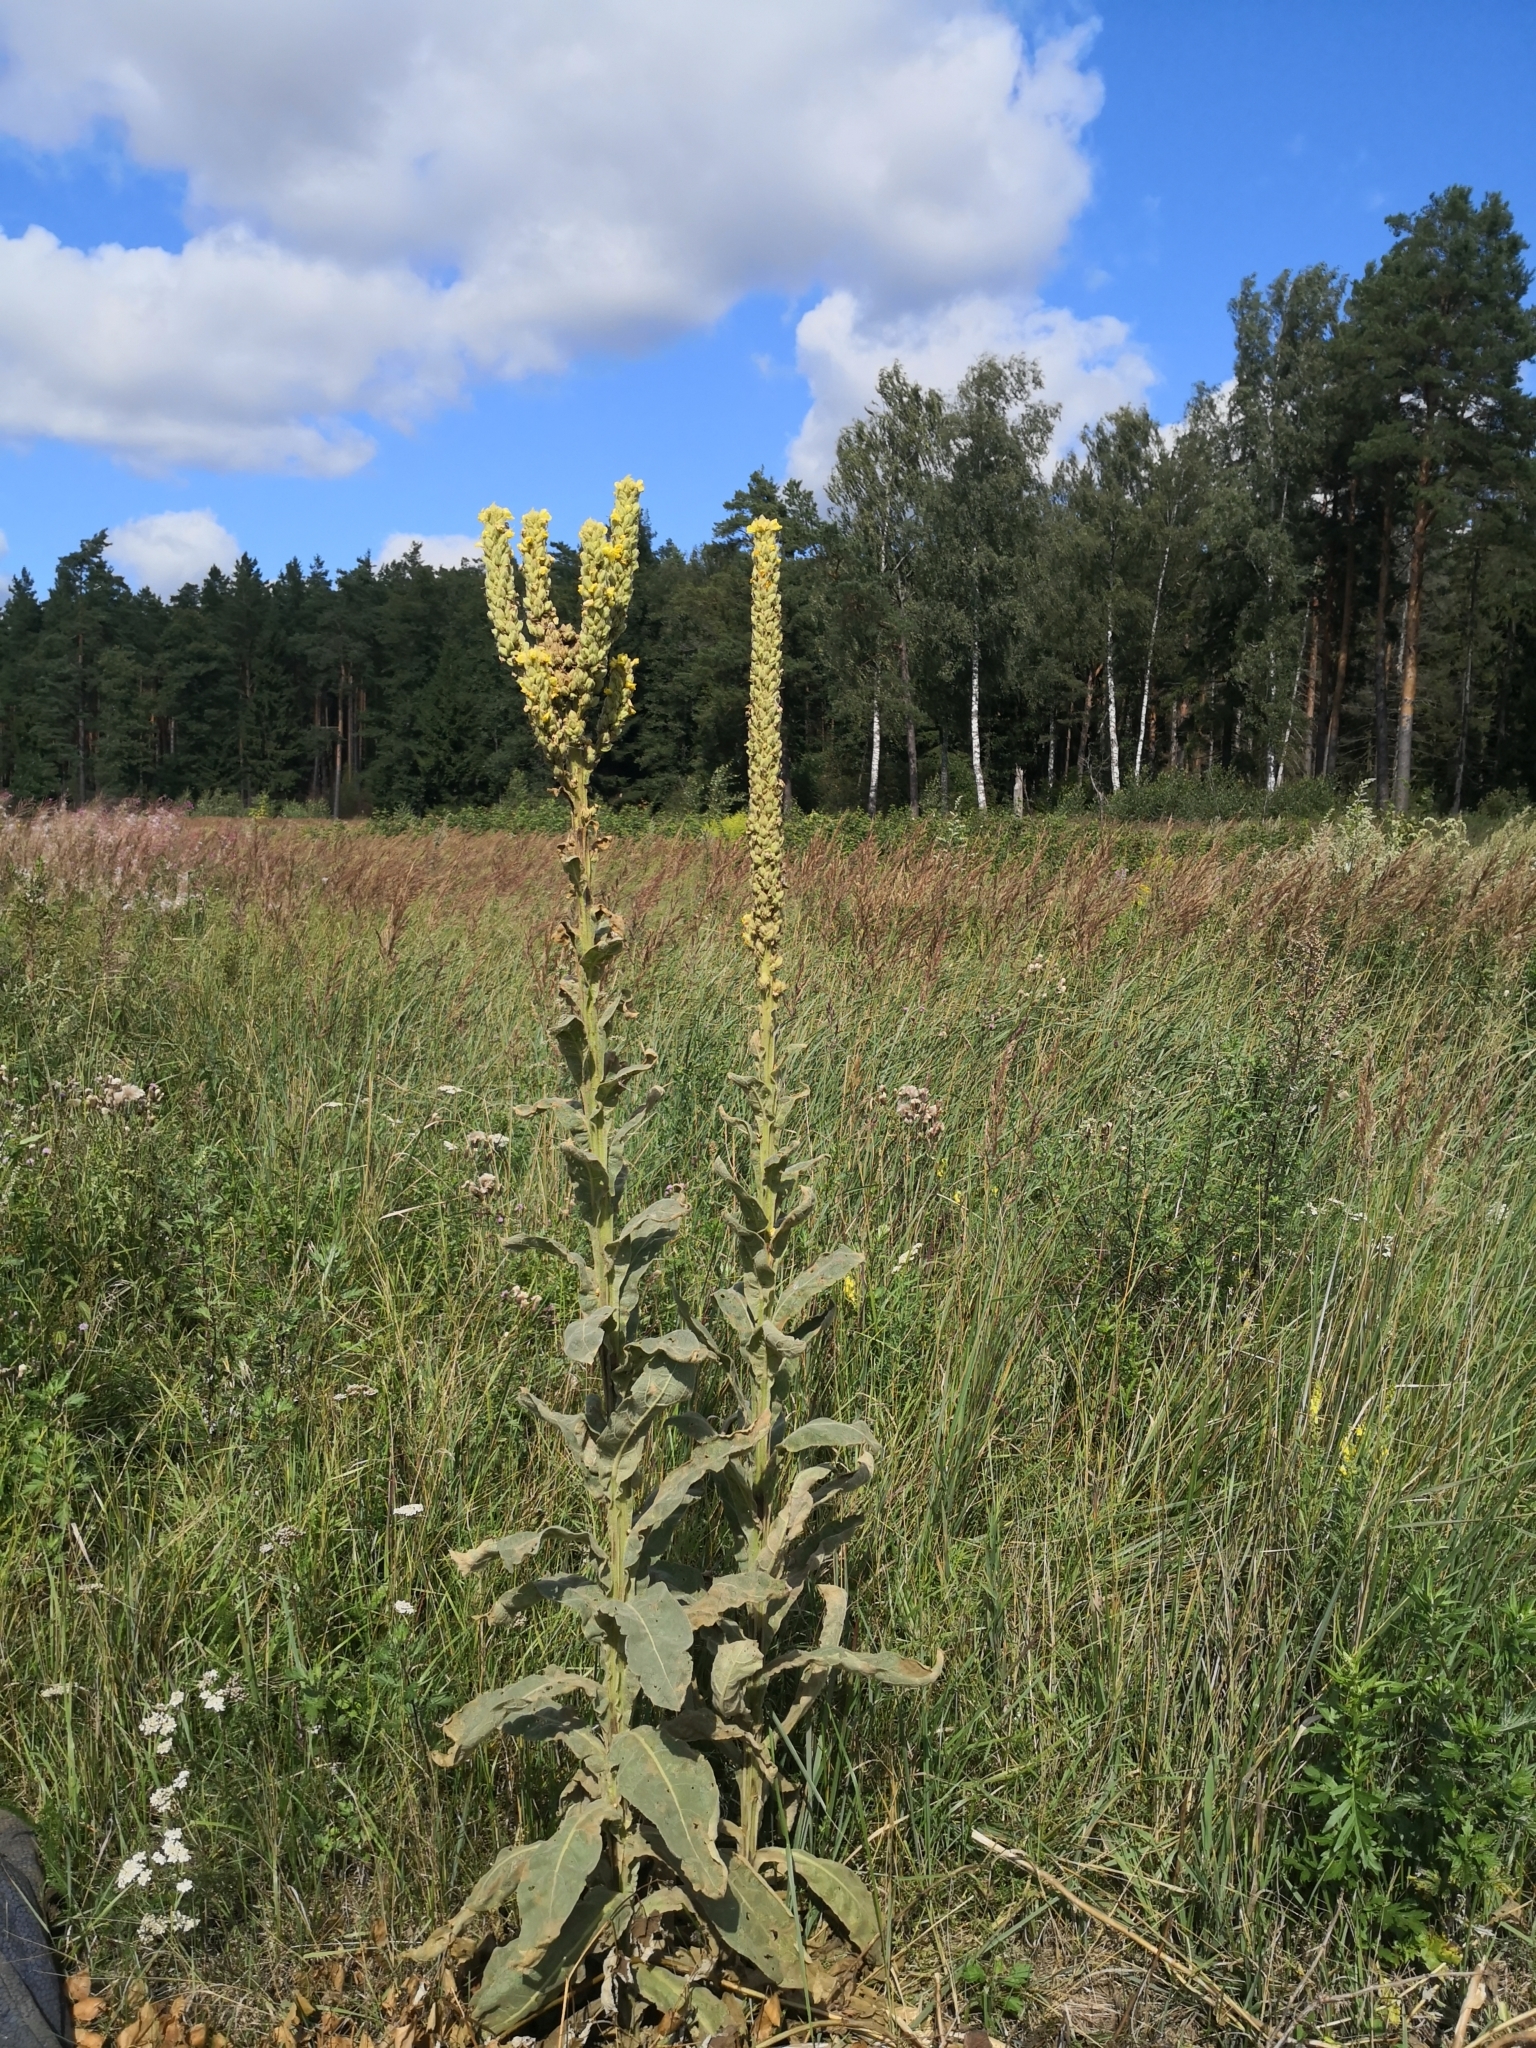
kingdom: Plantae
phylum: Tracheophyta
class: Magnoliopsida
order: Lamiales
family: Scrophulariaceae
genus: Verbascum
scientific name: Verbascum thapsus
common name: Common mullein
